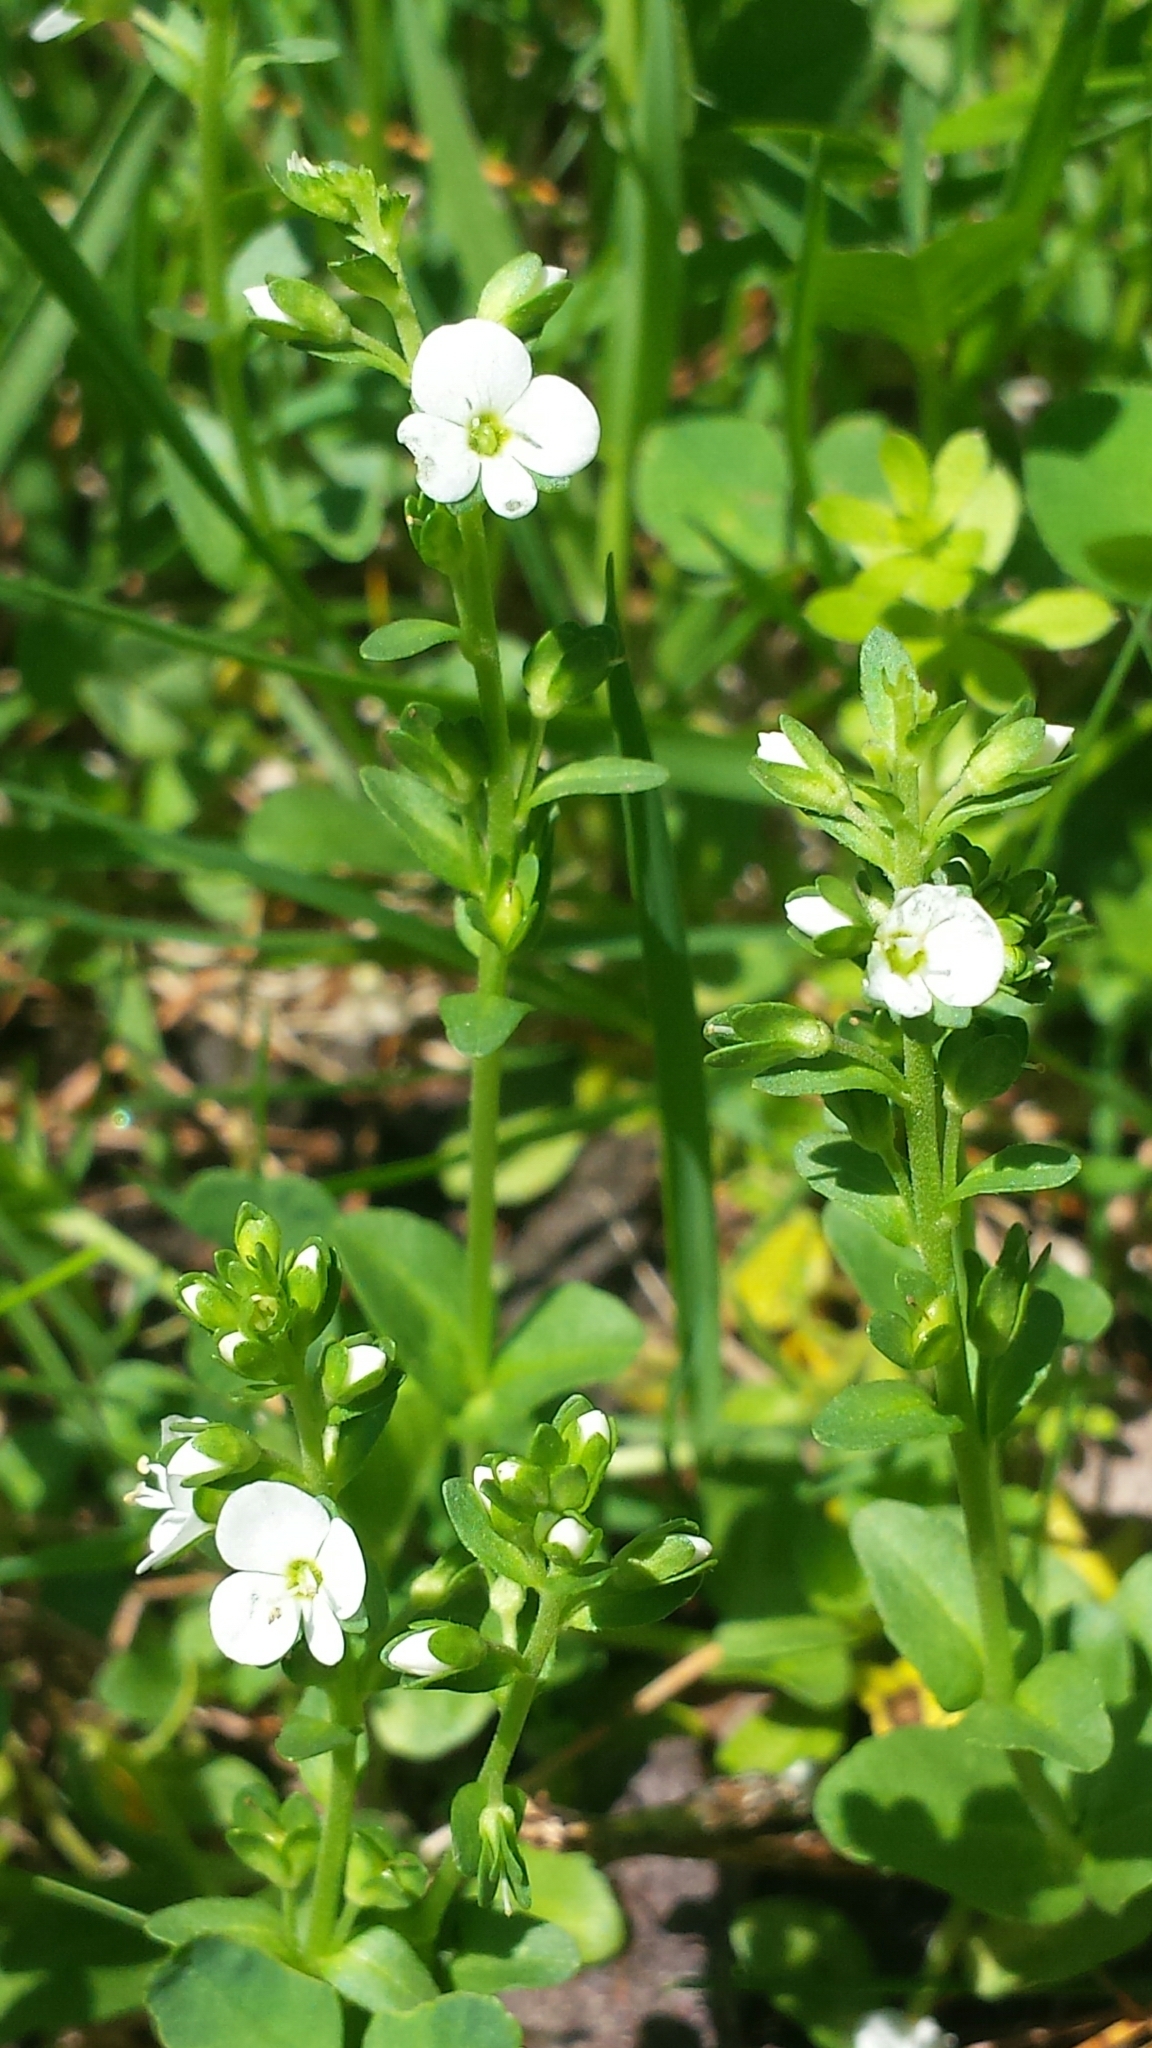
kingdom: Plantae
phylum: Tracheophyta
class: Magnoliopsida
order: Lamiales
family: Plantaginaceae
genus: Veronica
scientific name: Veronica serpyllifolia
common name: Thyme-leaved speedwell
